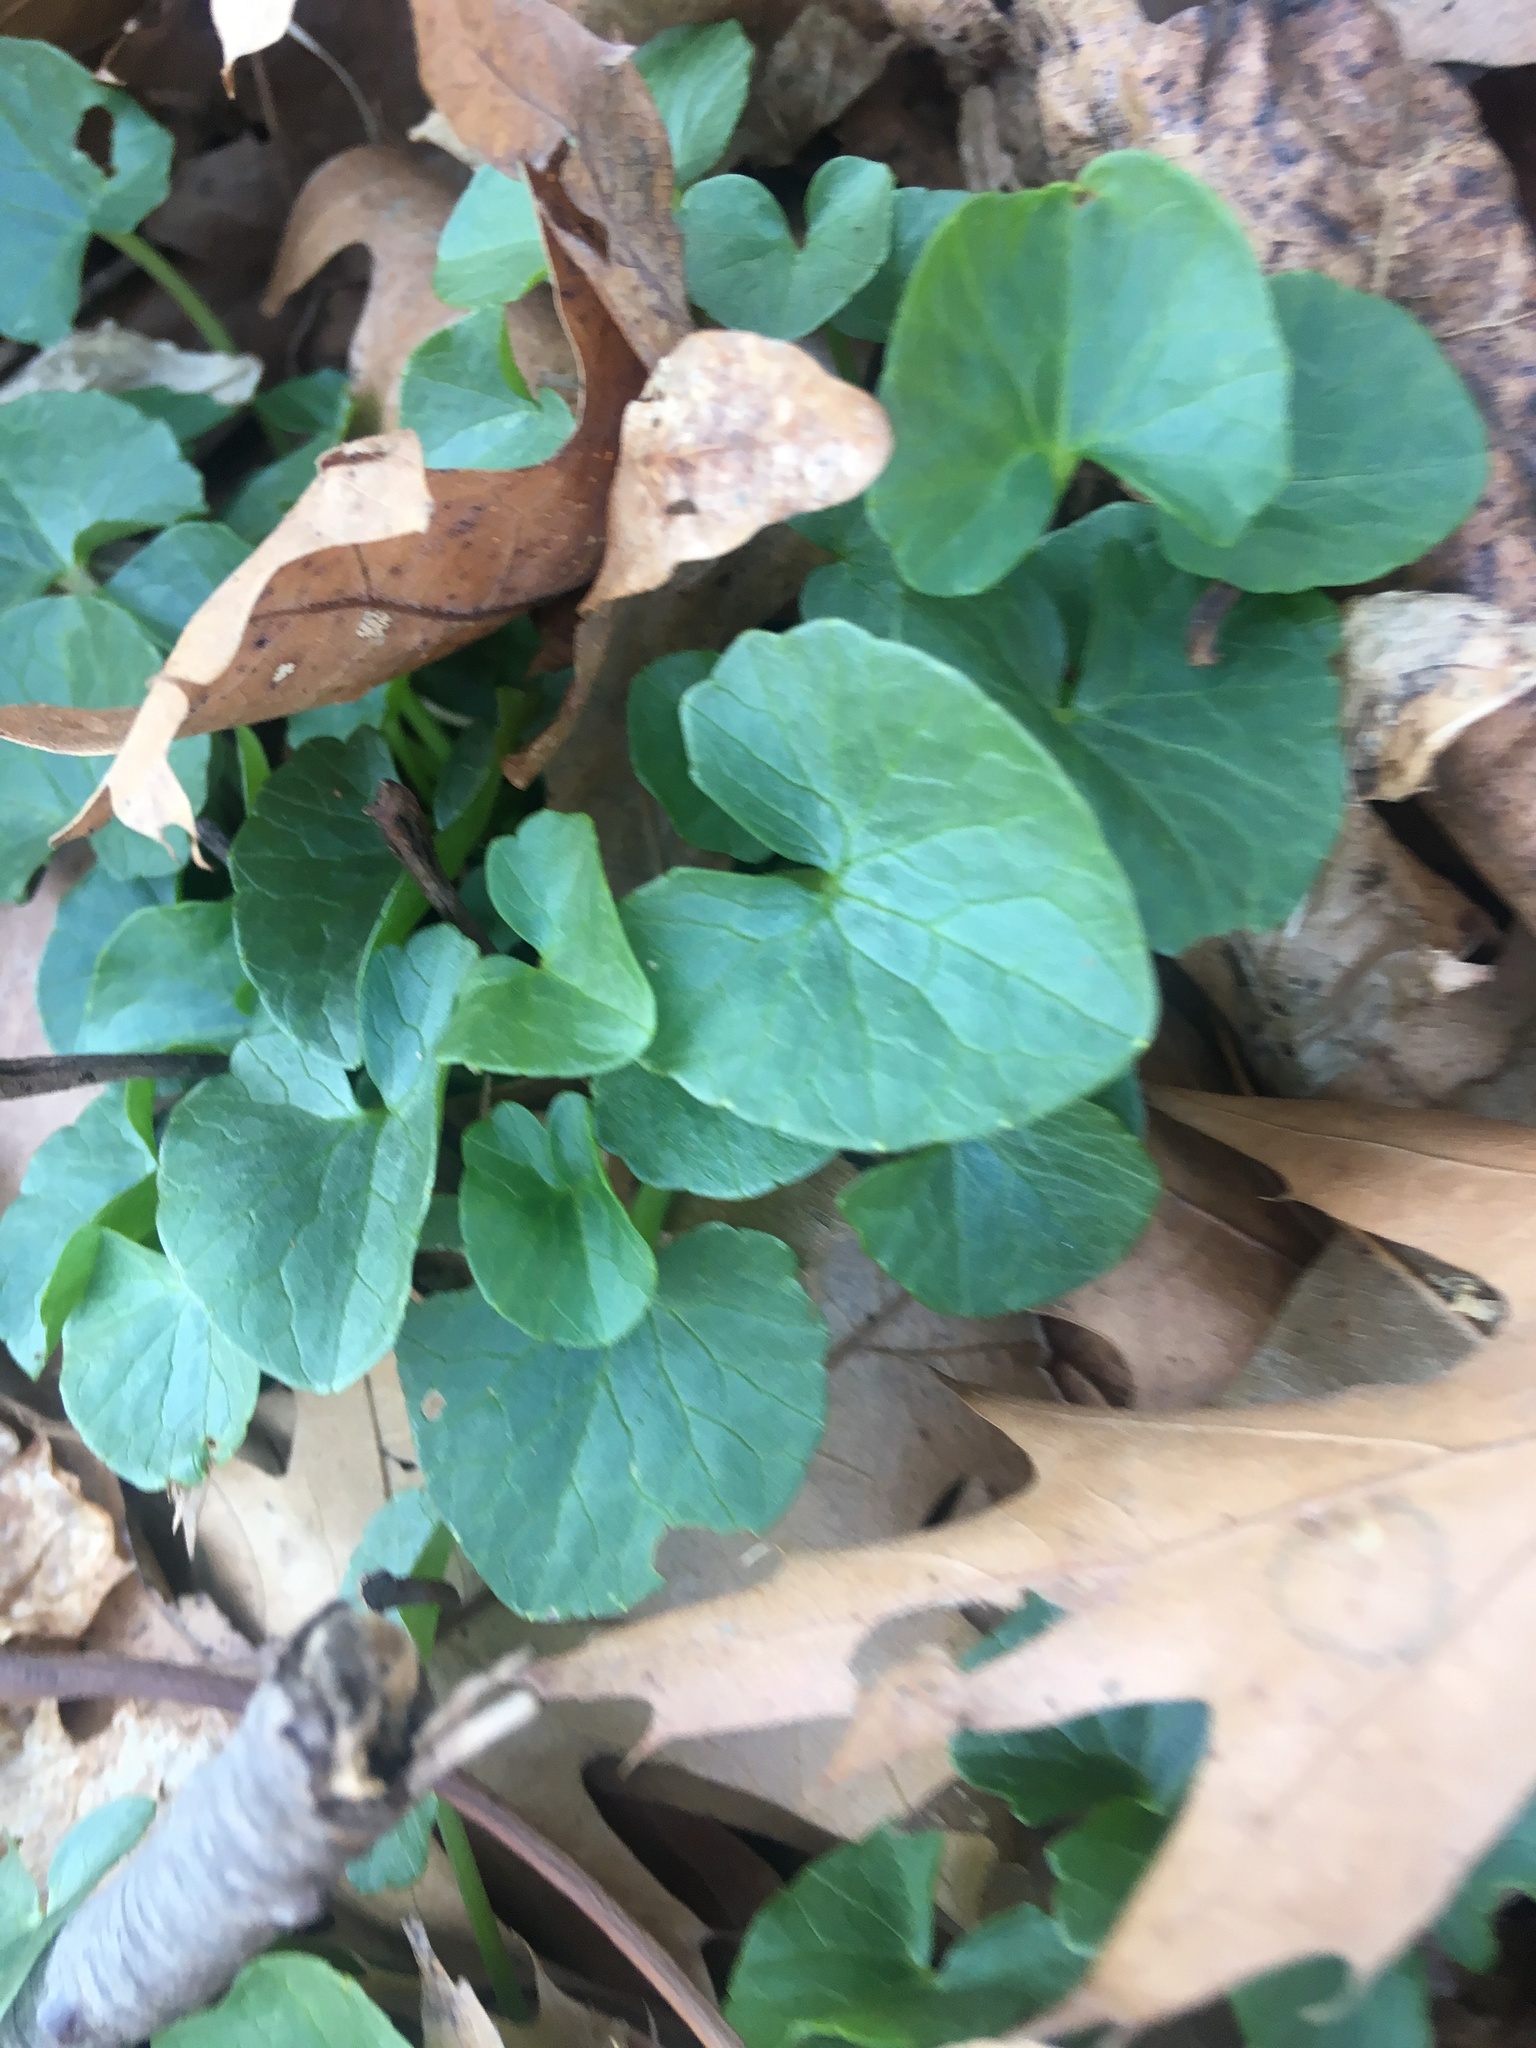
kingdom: Plantae
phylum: Tracheophyta
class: Magnoliopsida
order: Ranunculales
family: Ranunculaceae
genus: Ficaria
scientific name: Ficaria verna
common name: Lesser celandine
